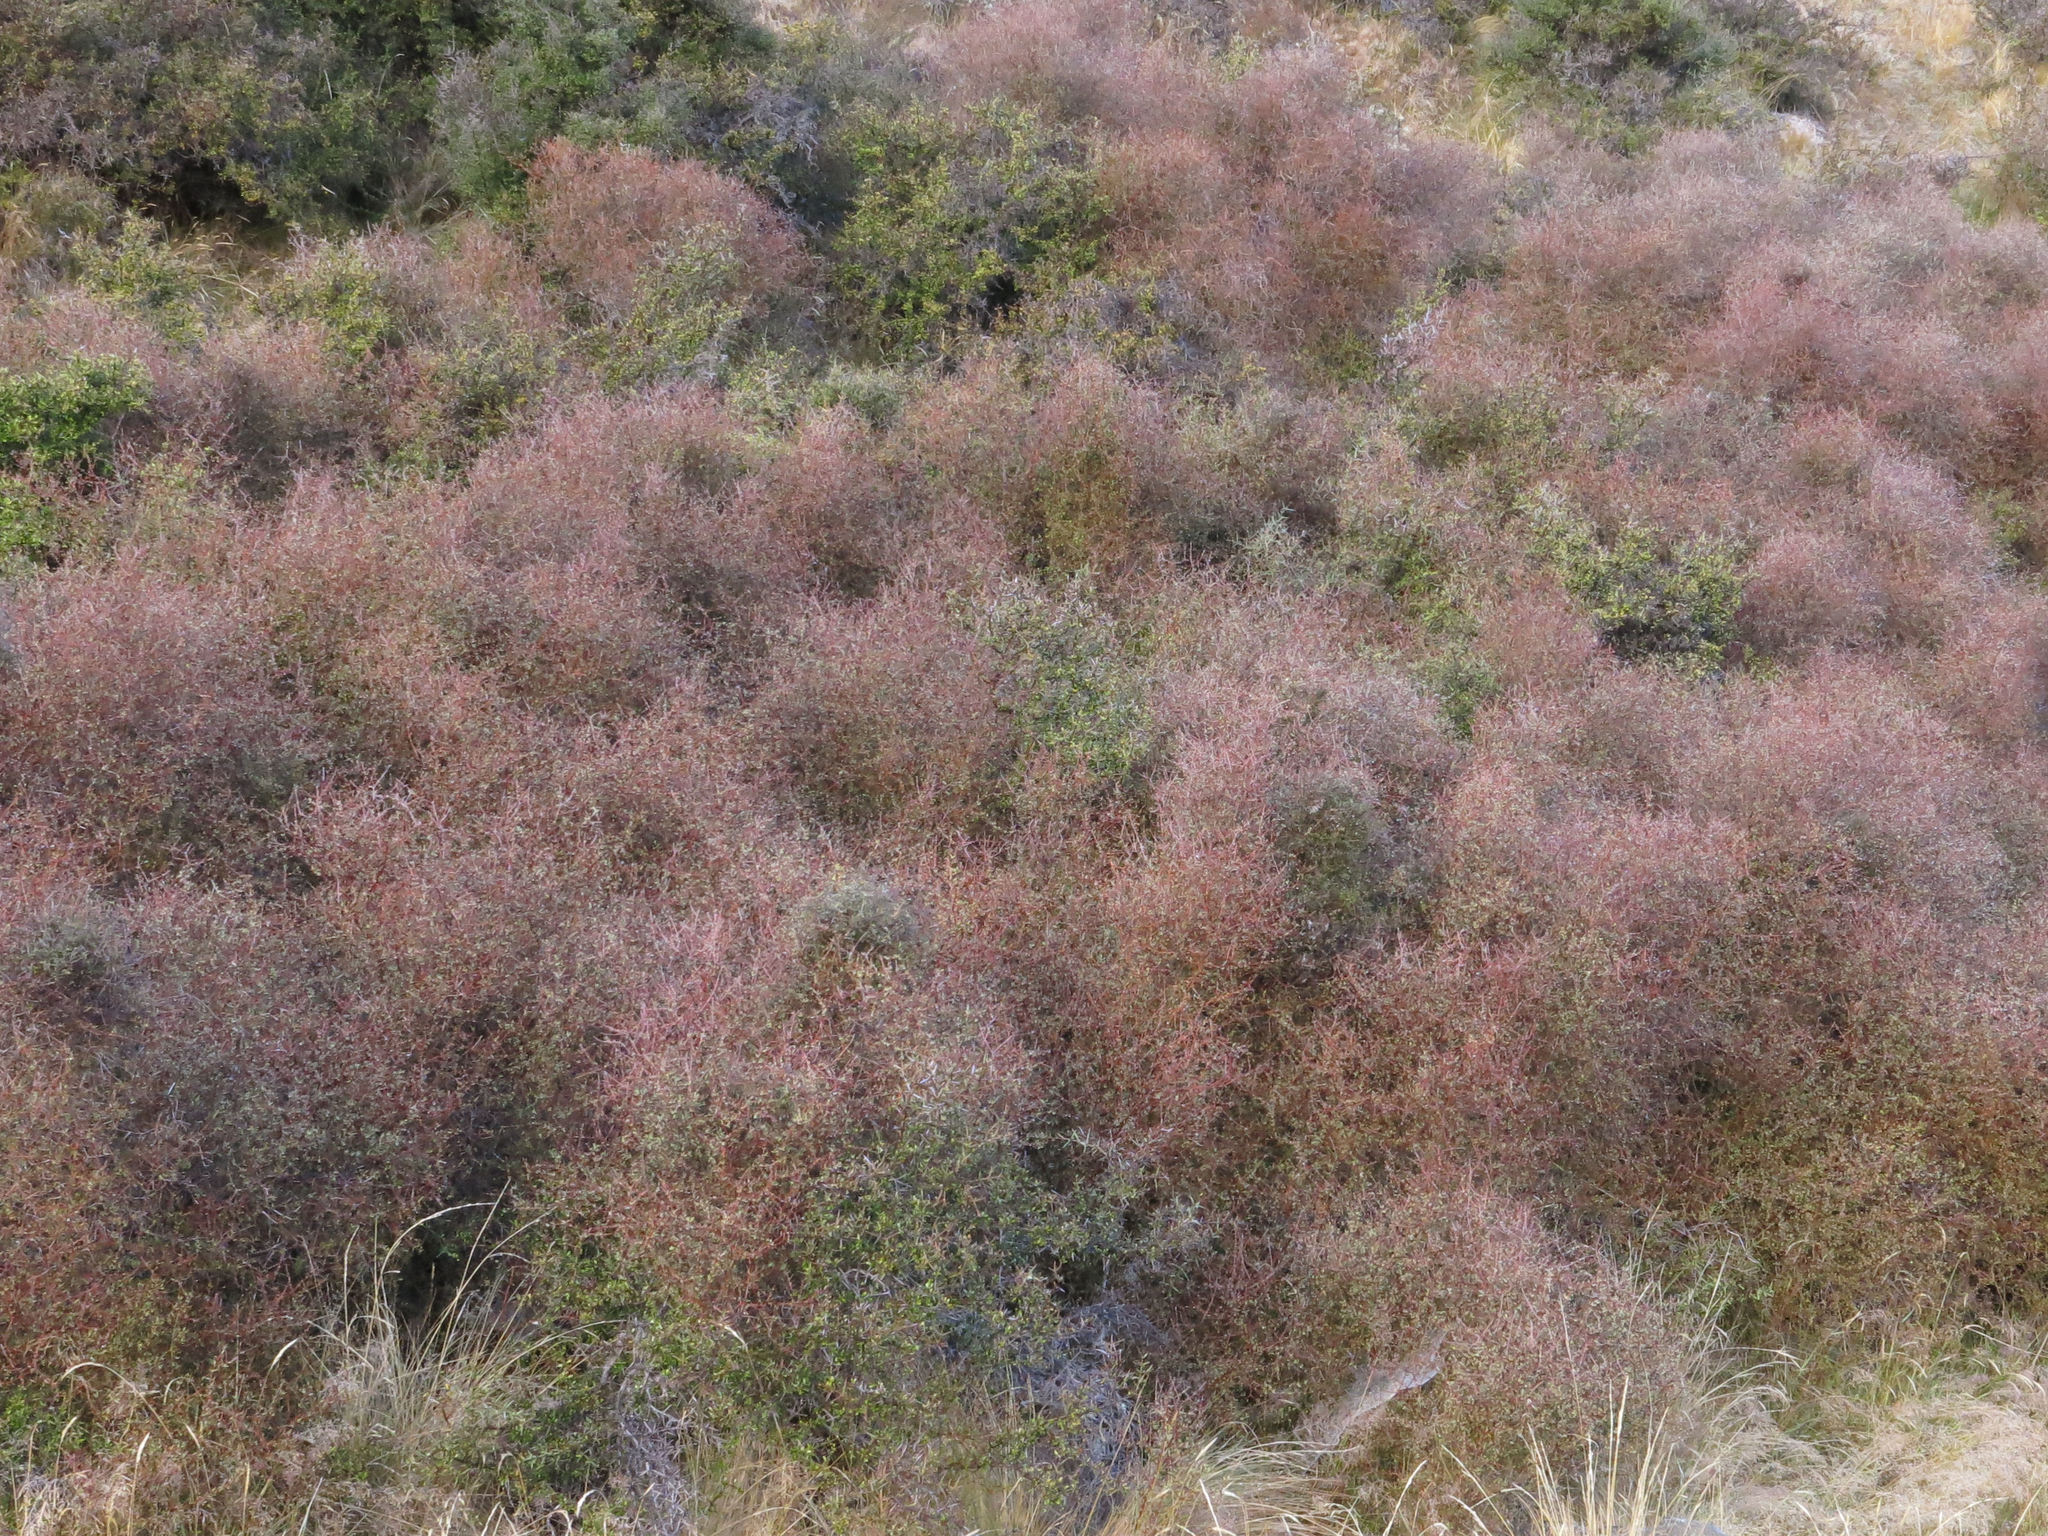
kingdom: Plantae
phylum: Tracheophyta
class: Magnoliopsida
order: Gentianales
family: Rubiaceae
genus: Coprosma
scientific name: Coprosma intertexta
